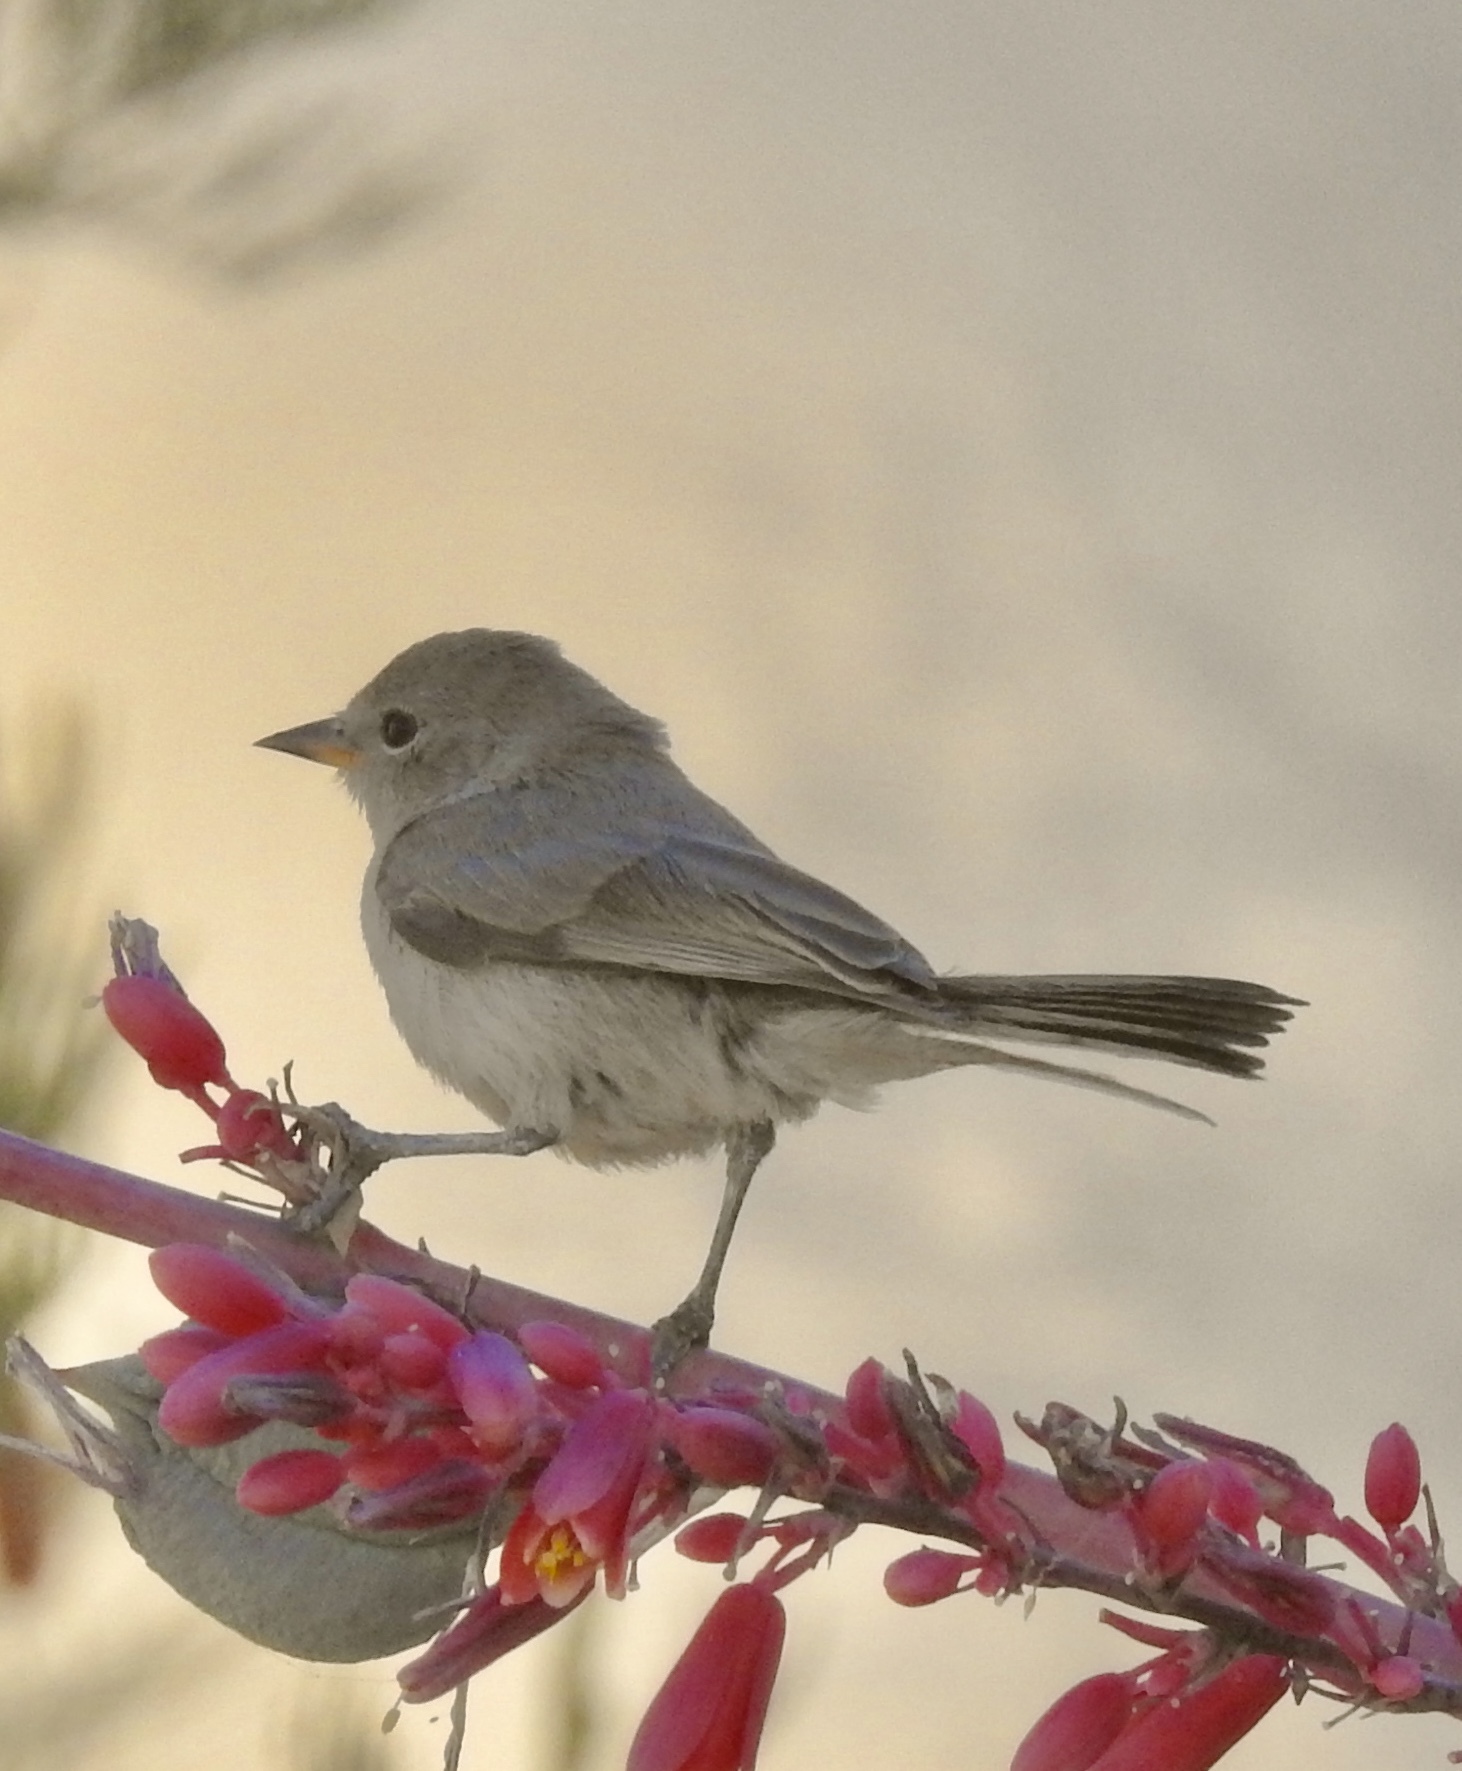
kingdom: Animalia
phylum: Chordata
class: Aves
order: Passeriformes
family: Remizidae
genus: Auriparus
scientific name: Auriparus flaviceps
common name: Verdin
